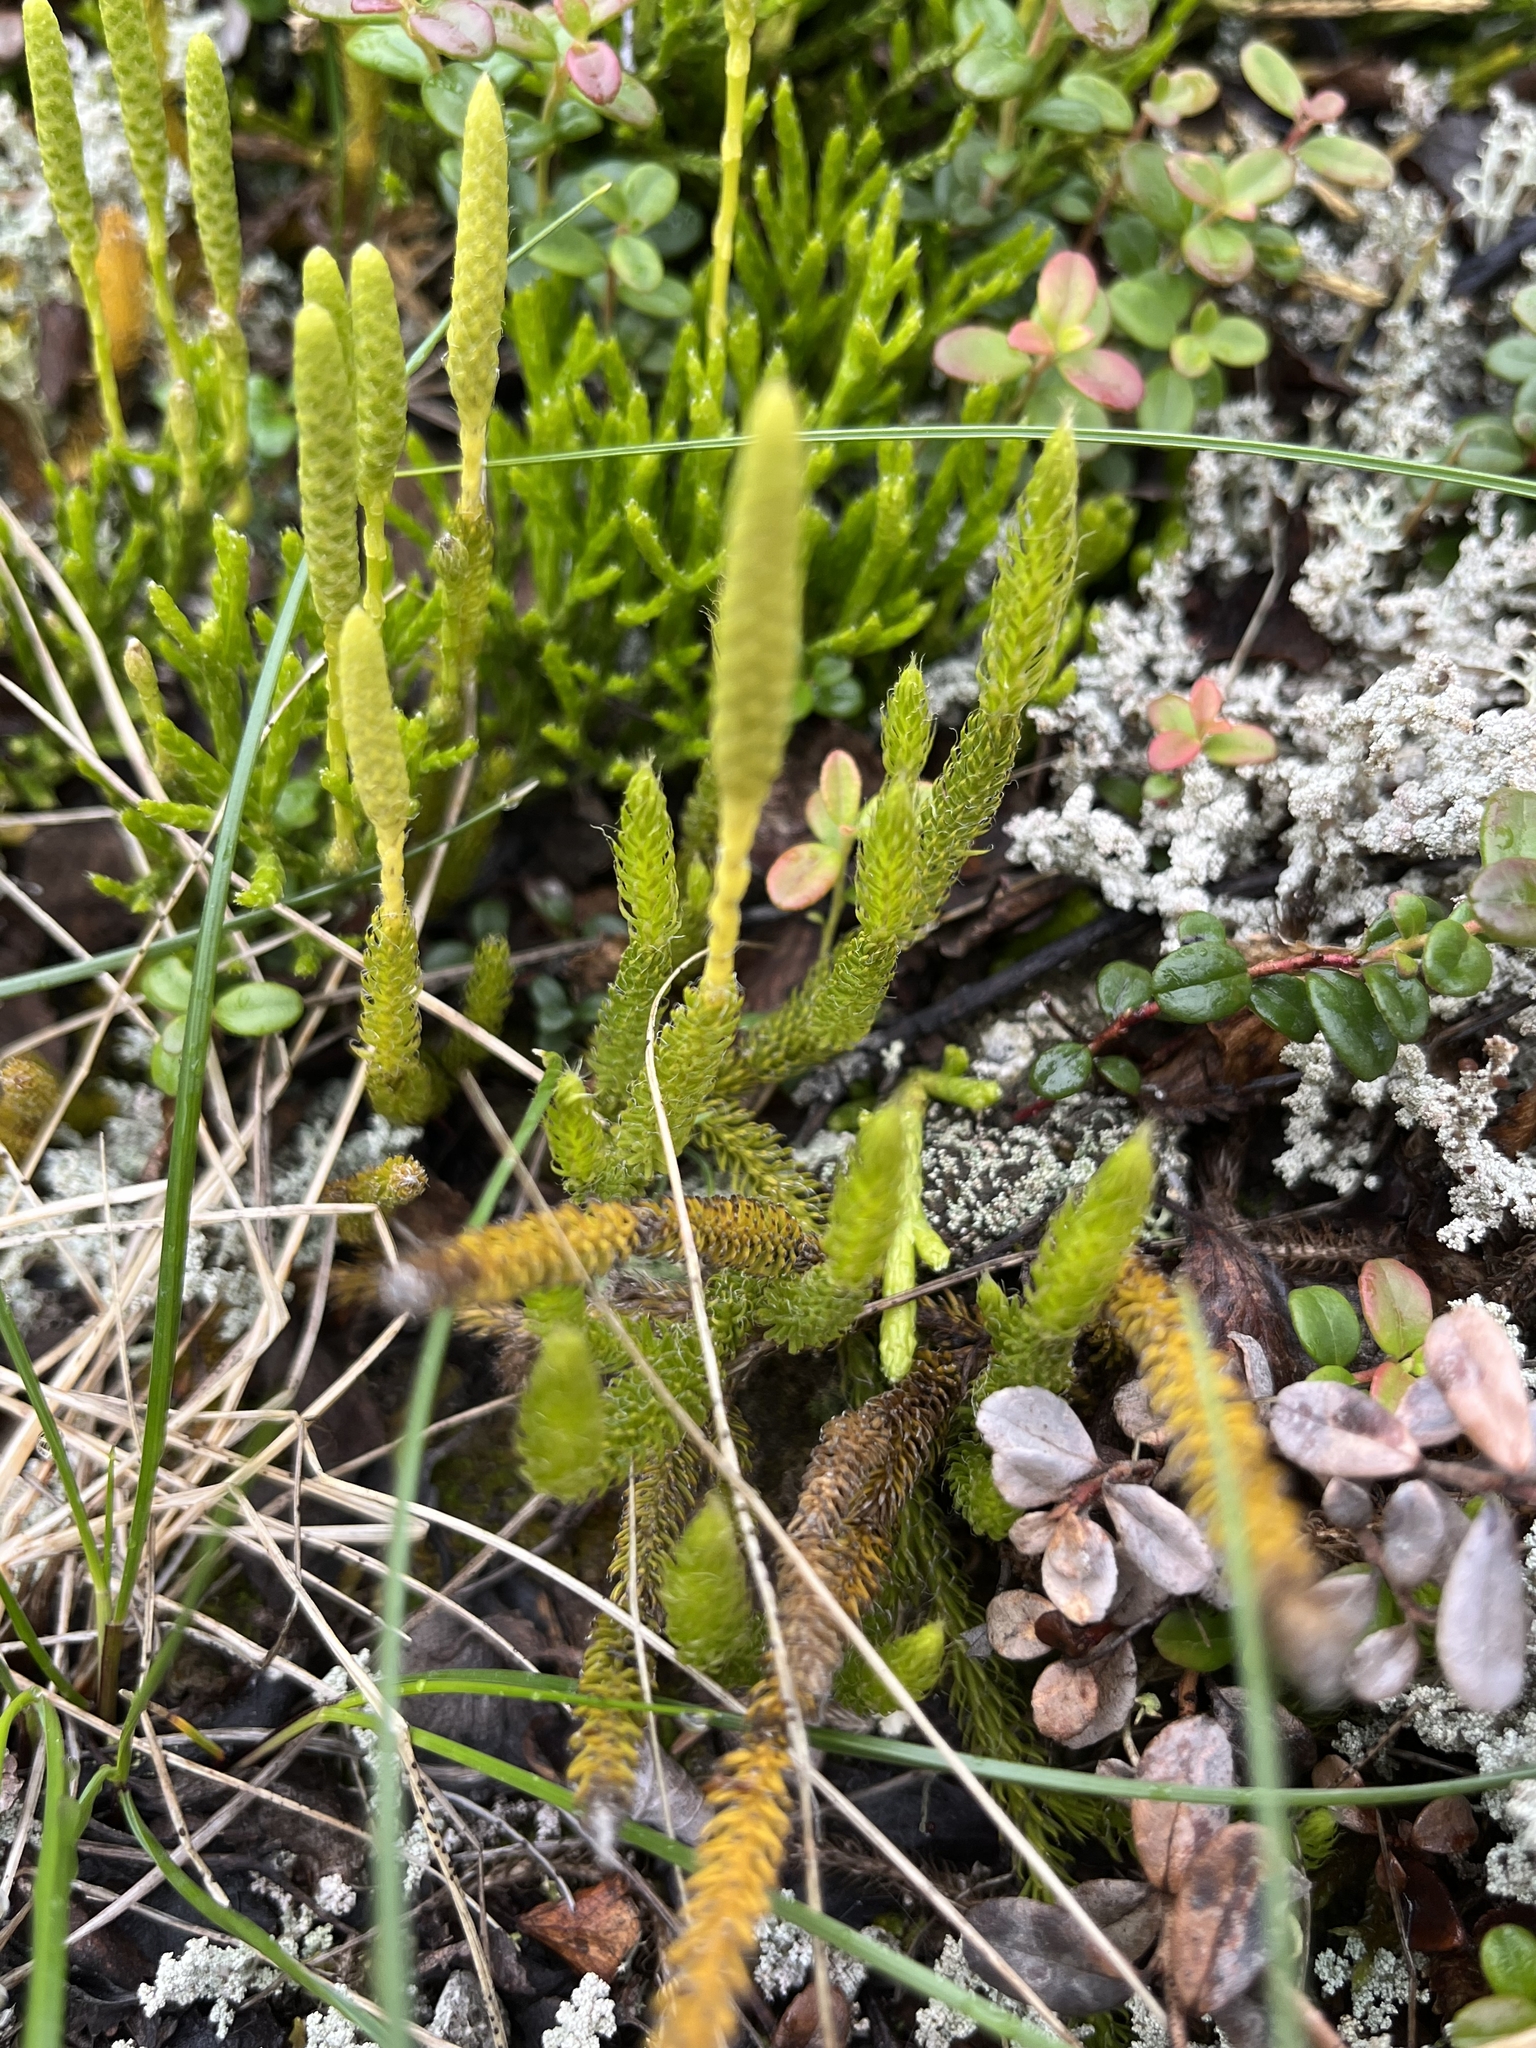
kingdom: Plantae
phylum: Tracheophyta
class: Lycopodiopsida
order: Lycopodiales
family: Lycopodiaceae
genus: Lycopodium
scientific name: Lycopodium lagopus
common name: One-cone clubmoss
